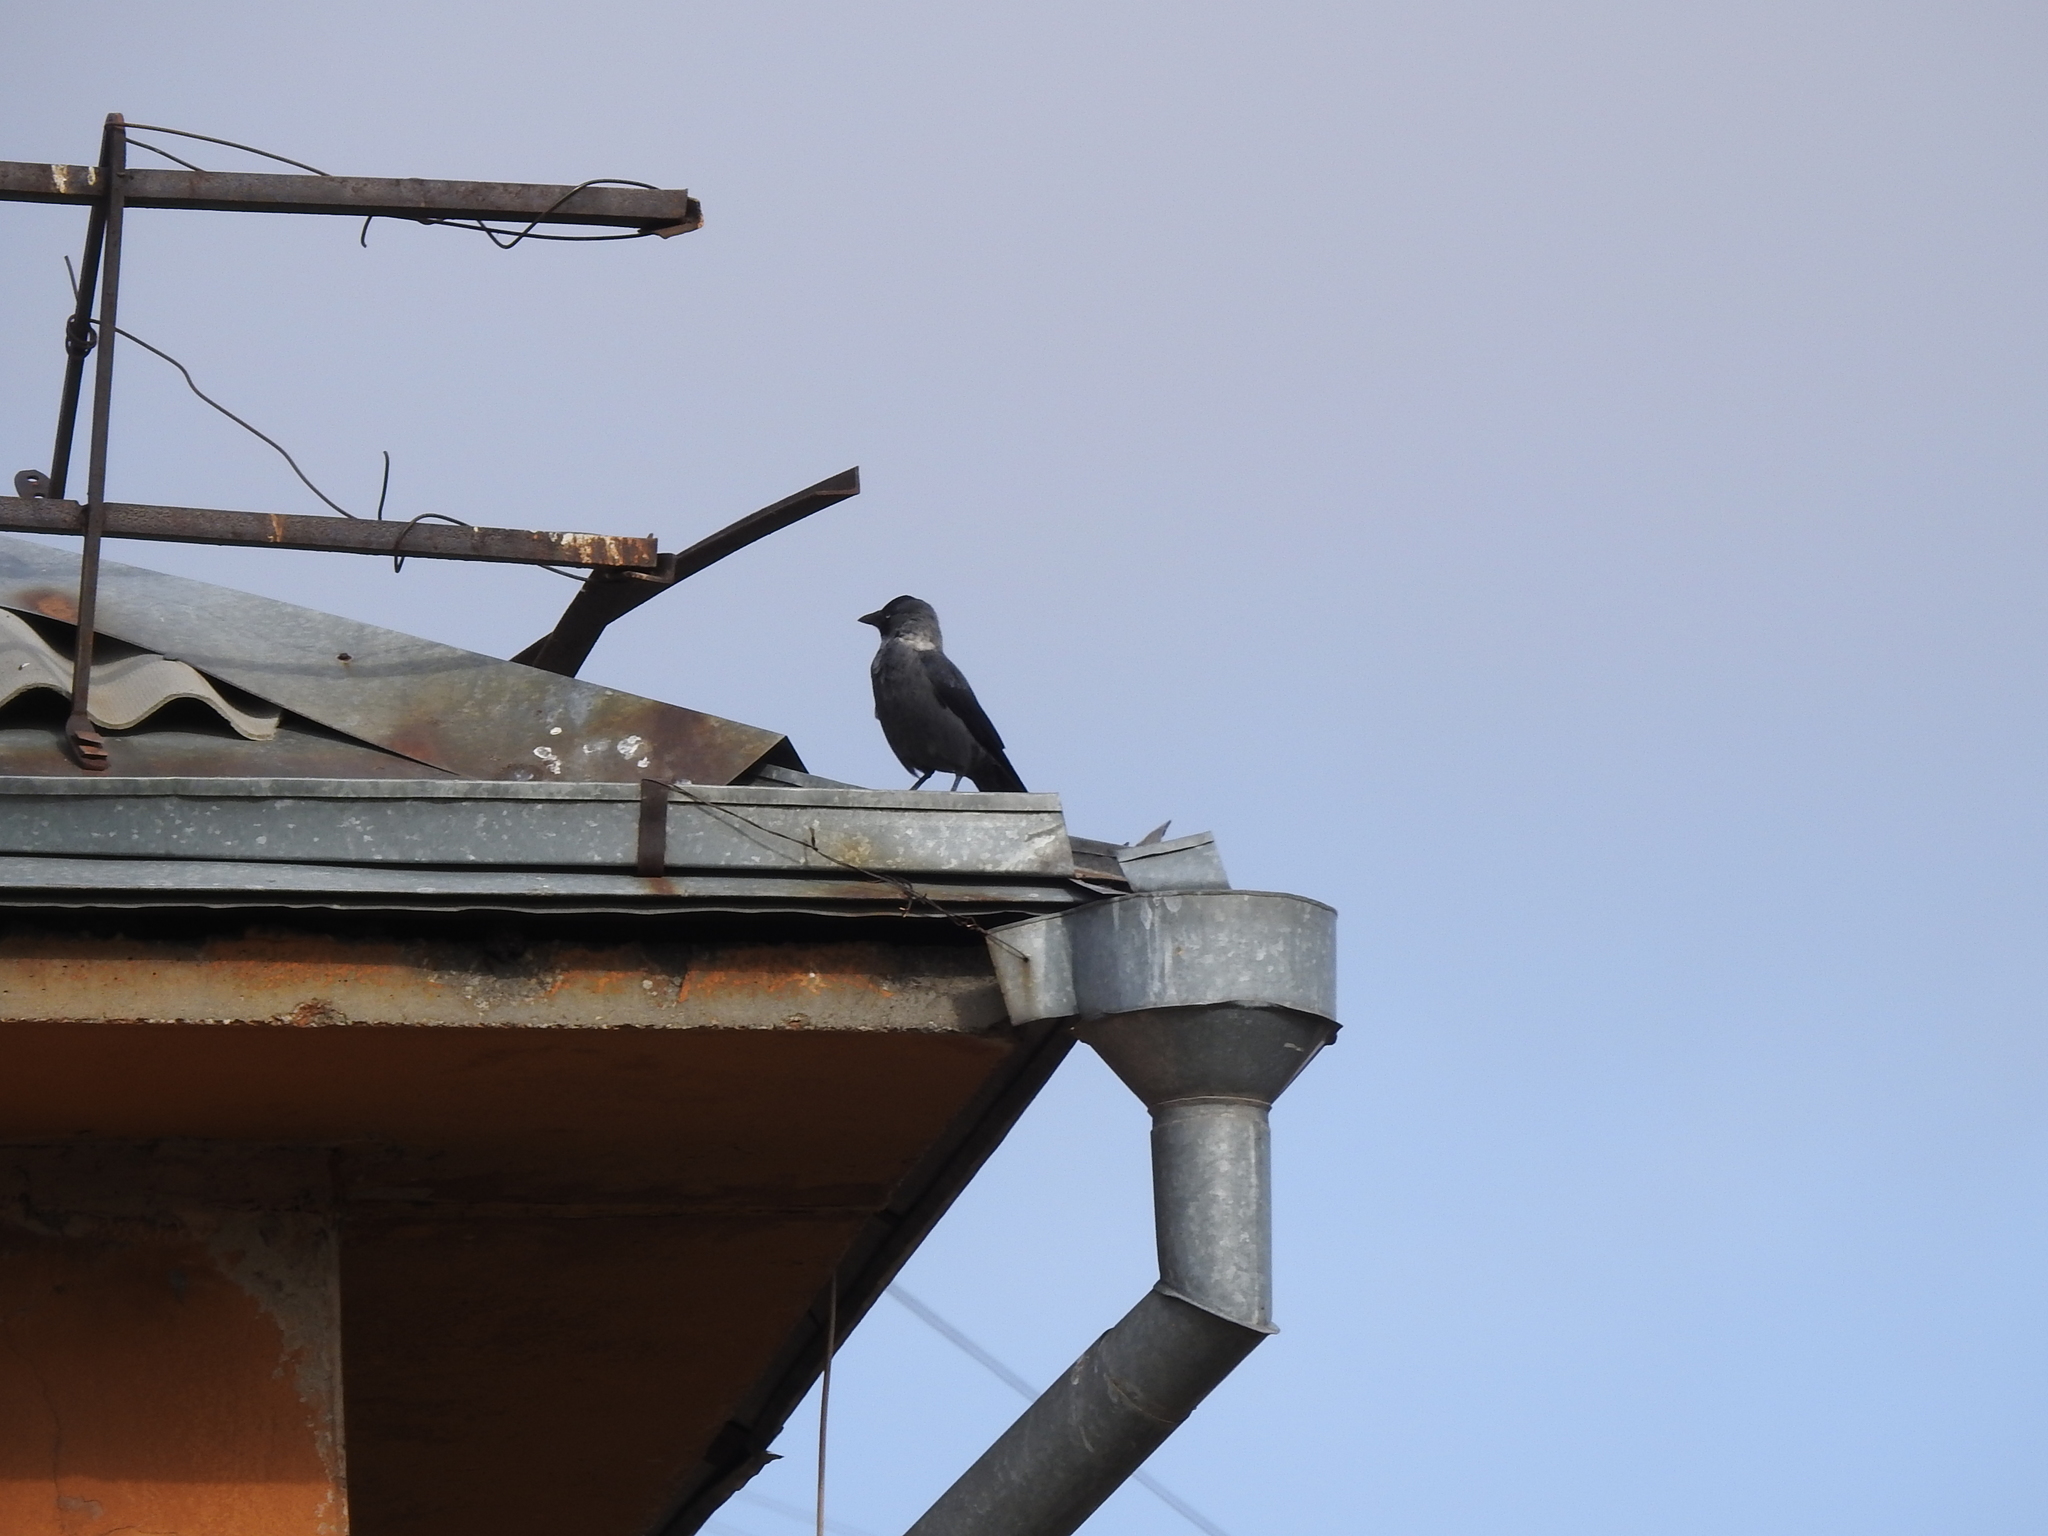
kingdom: Animalia
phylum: Chordata
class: Aves
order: Passeriformes
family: Corvidae
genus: Coloeus
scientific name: Coloeus monedula
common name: Western jackdaw
